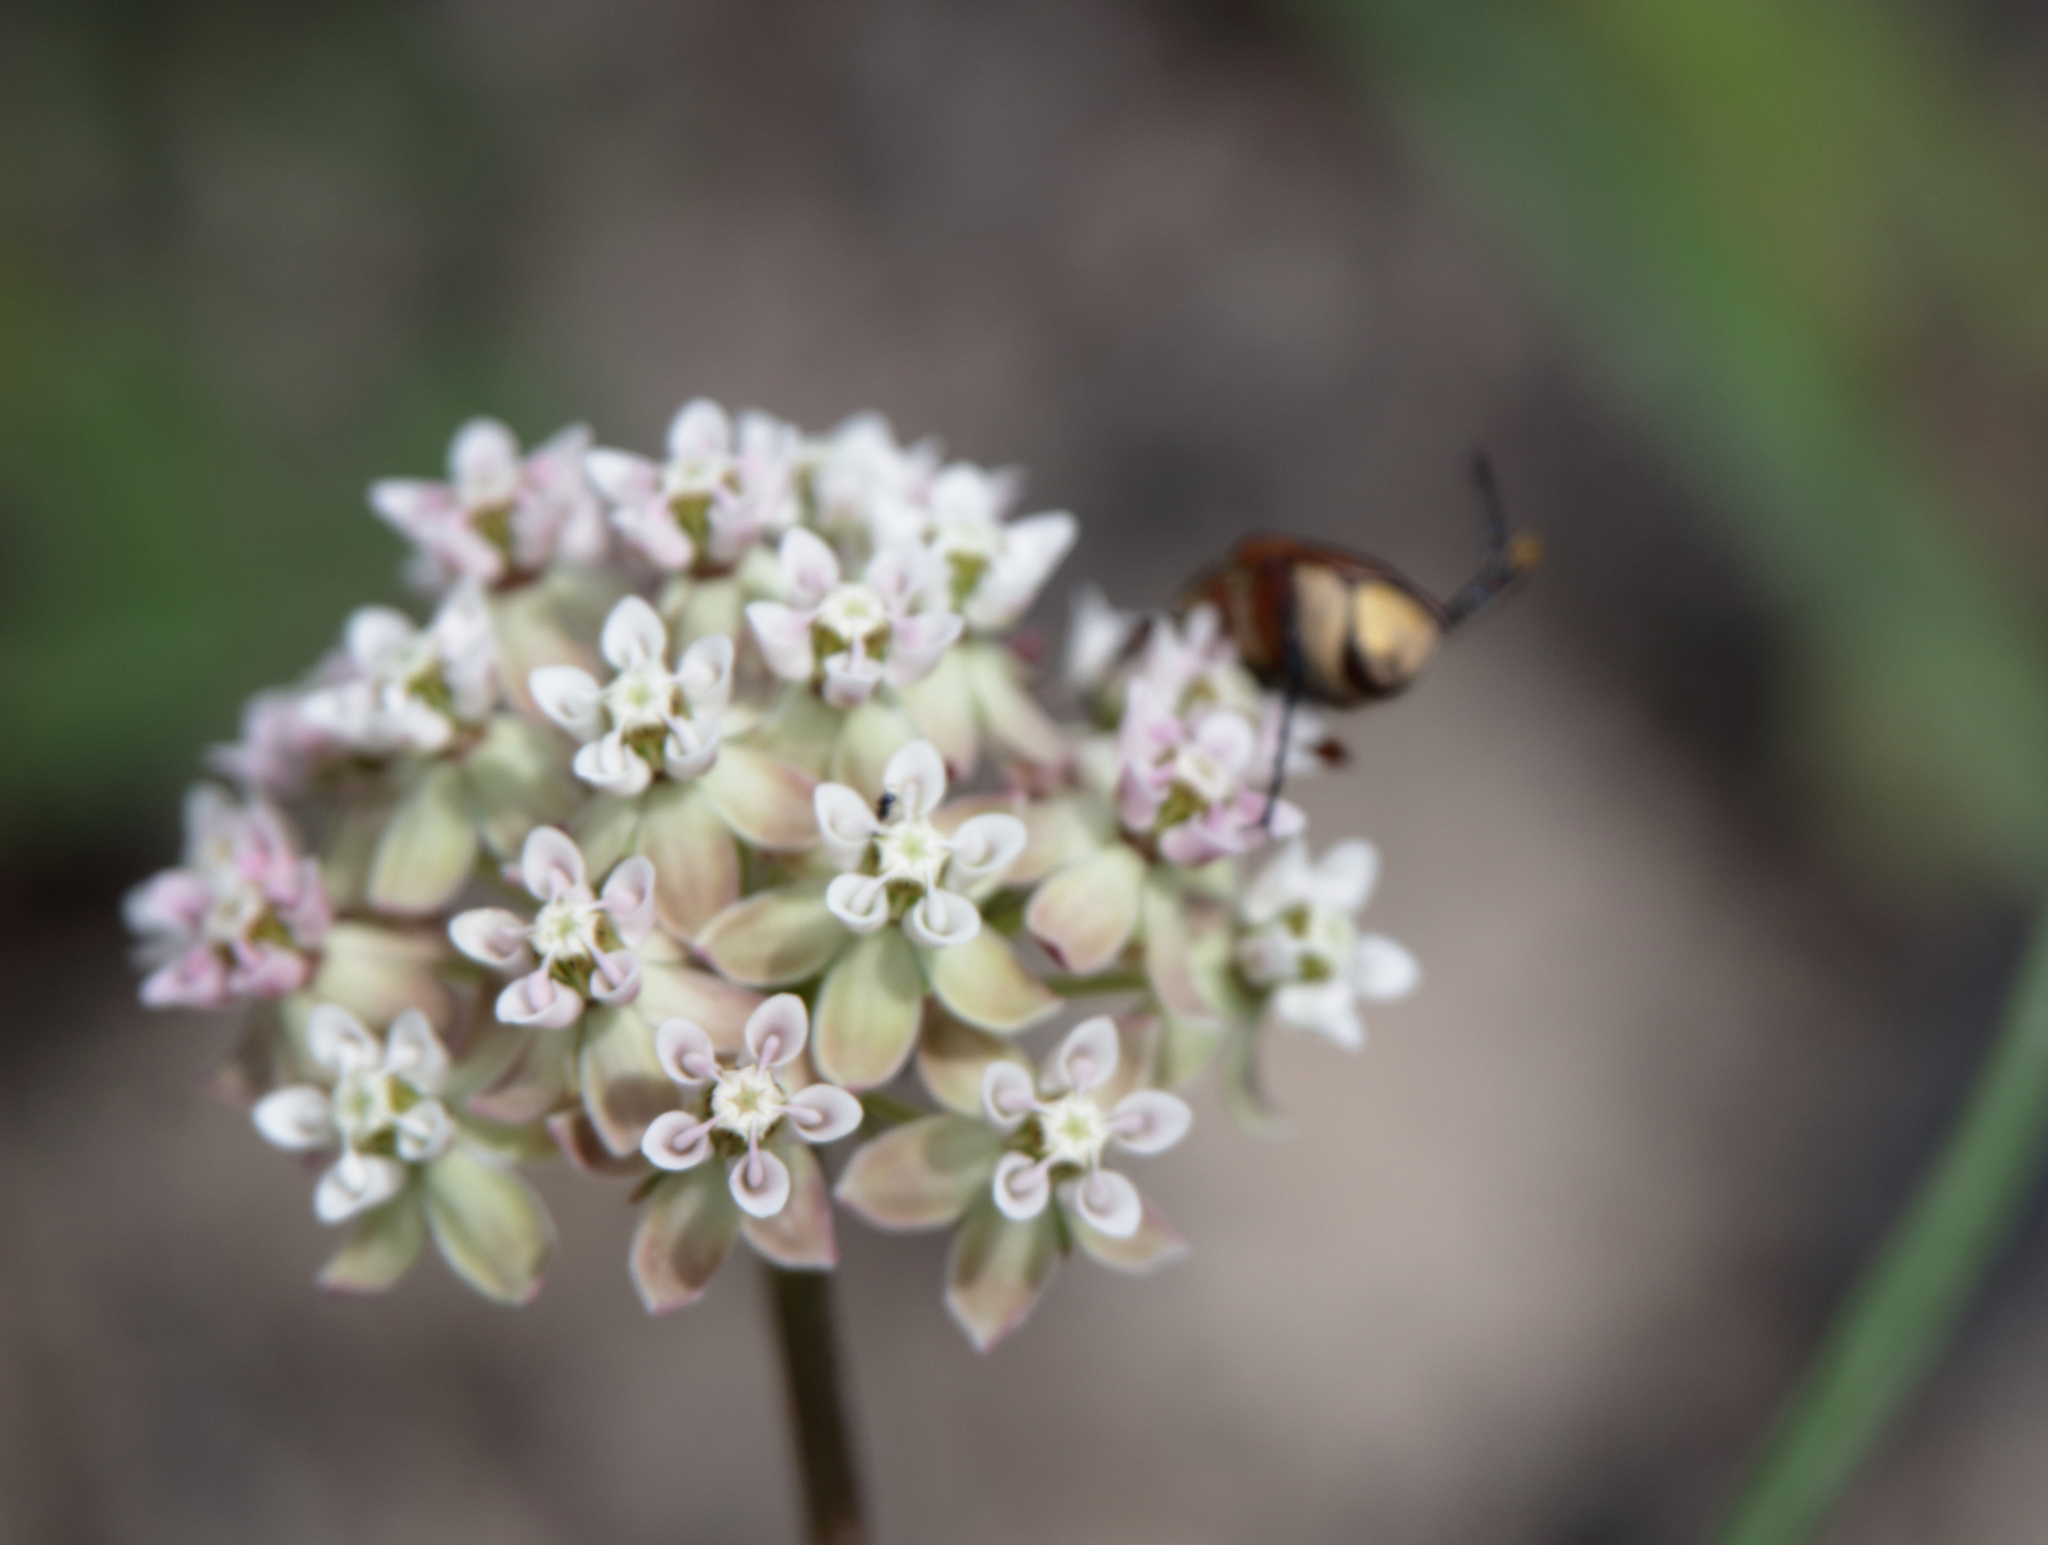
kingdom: Plantae
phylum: Tracheophyta
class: Magnoliopsida
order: Gentianales
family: Apocynaceae
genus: Asclepias
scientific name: Asclepias michauxii
